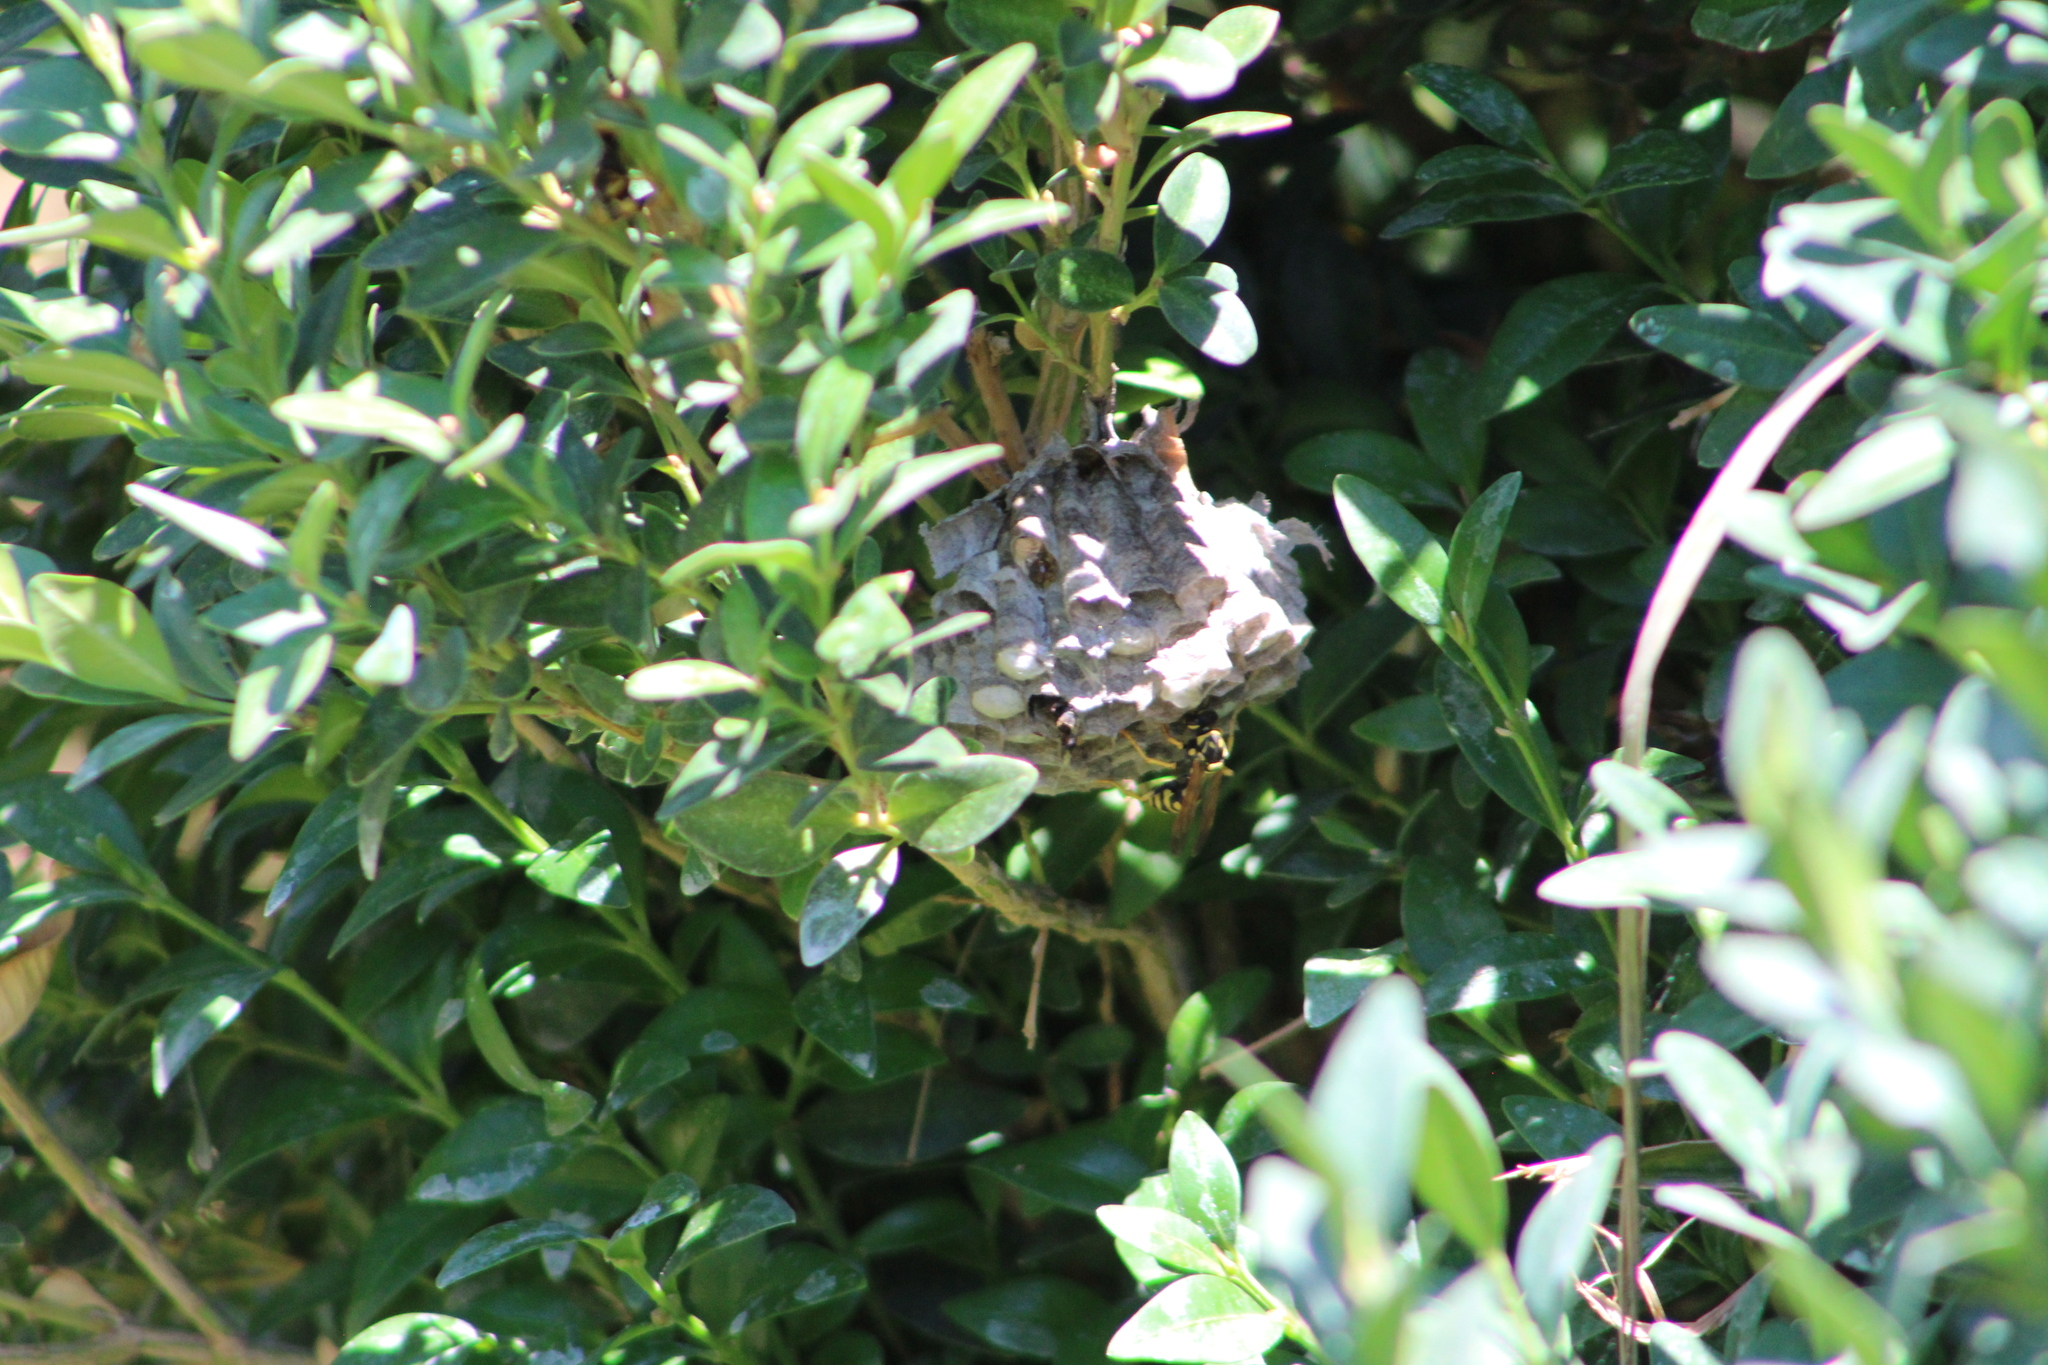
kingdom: Animalia
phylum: Arthropoda
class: Insecta
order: Hymenoptera
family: Eumenidae
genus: Polistes
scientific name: Polistes dominula
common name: Paper wasp
